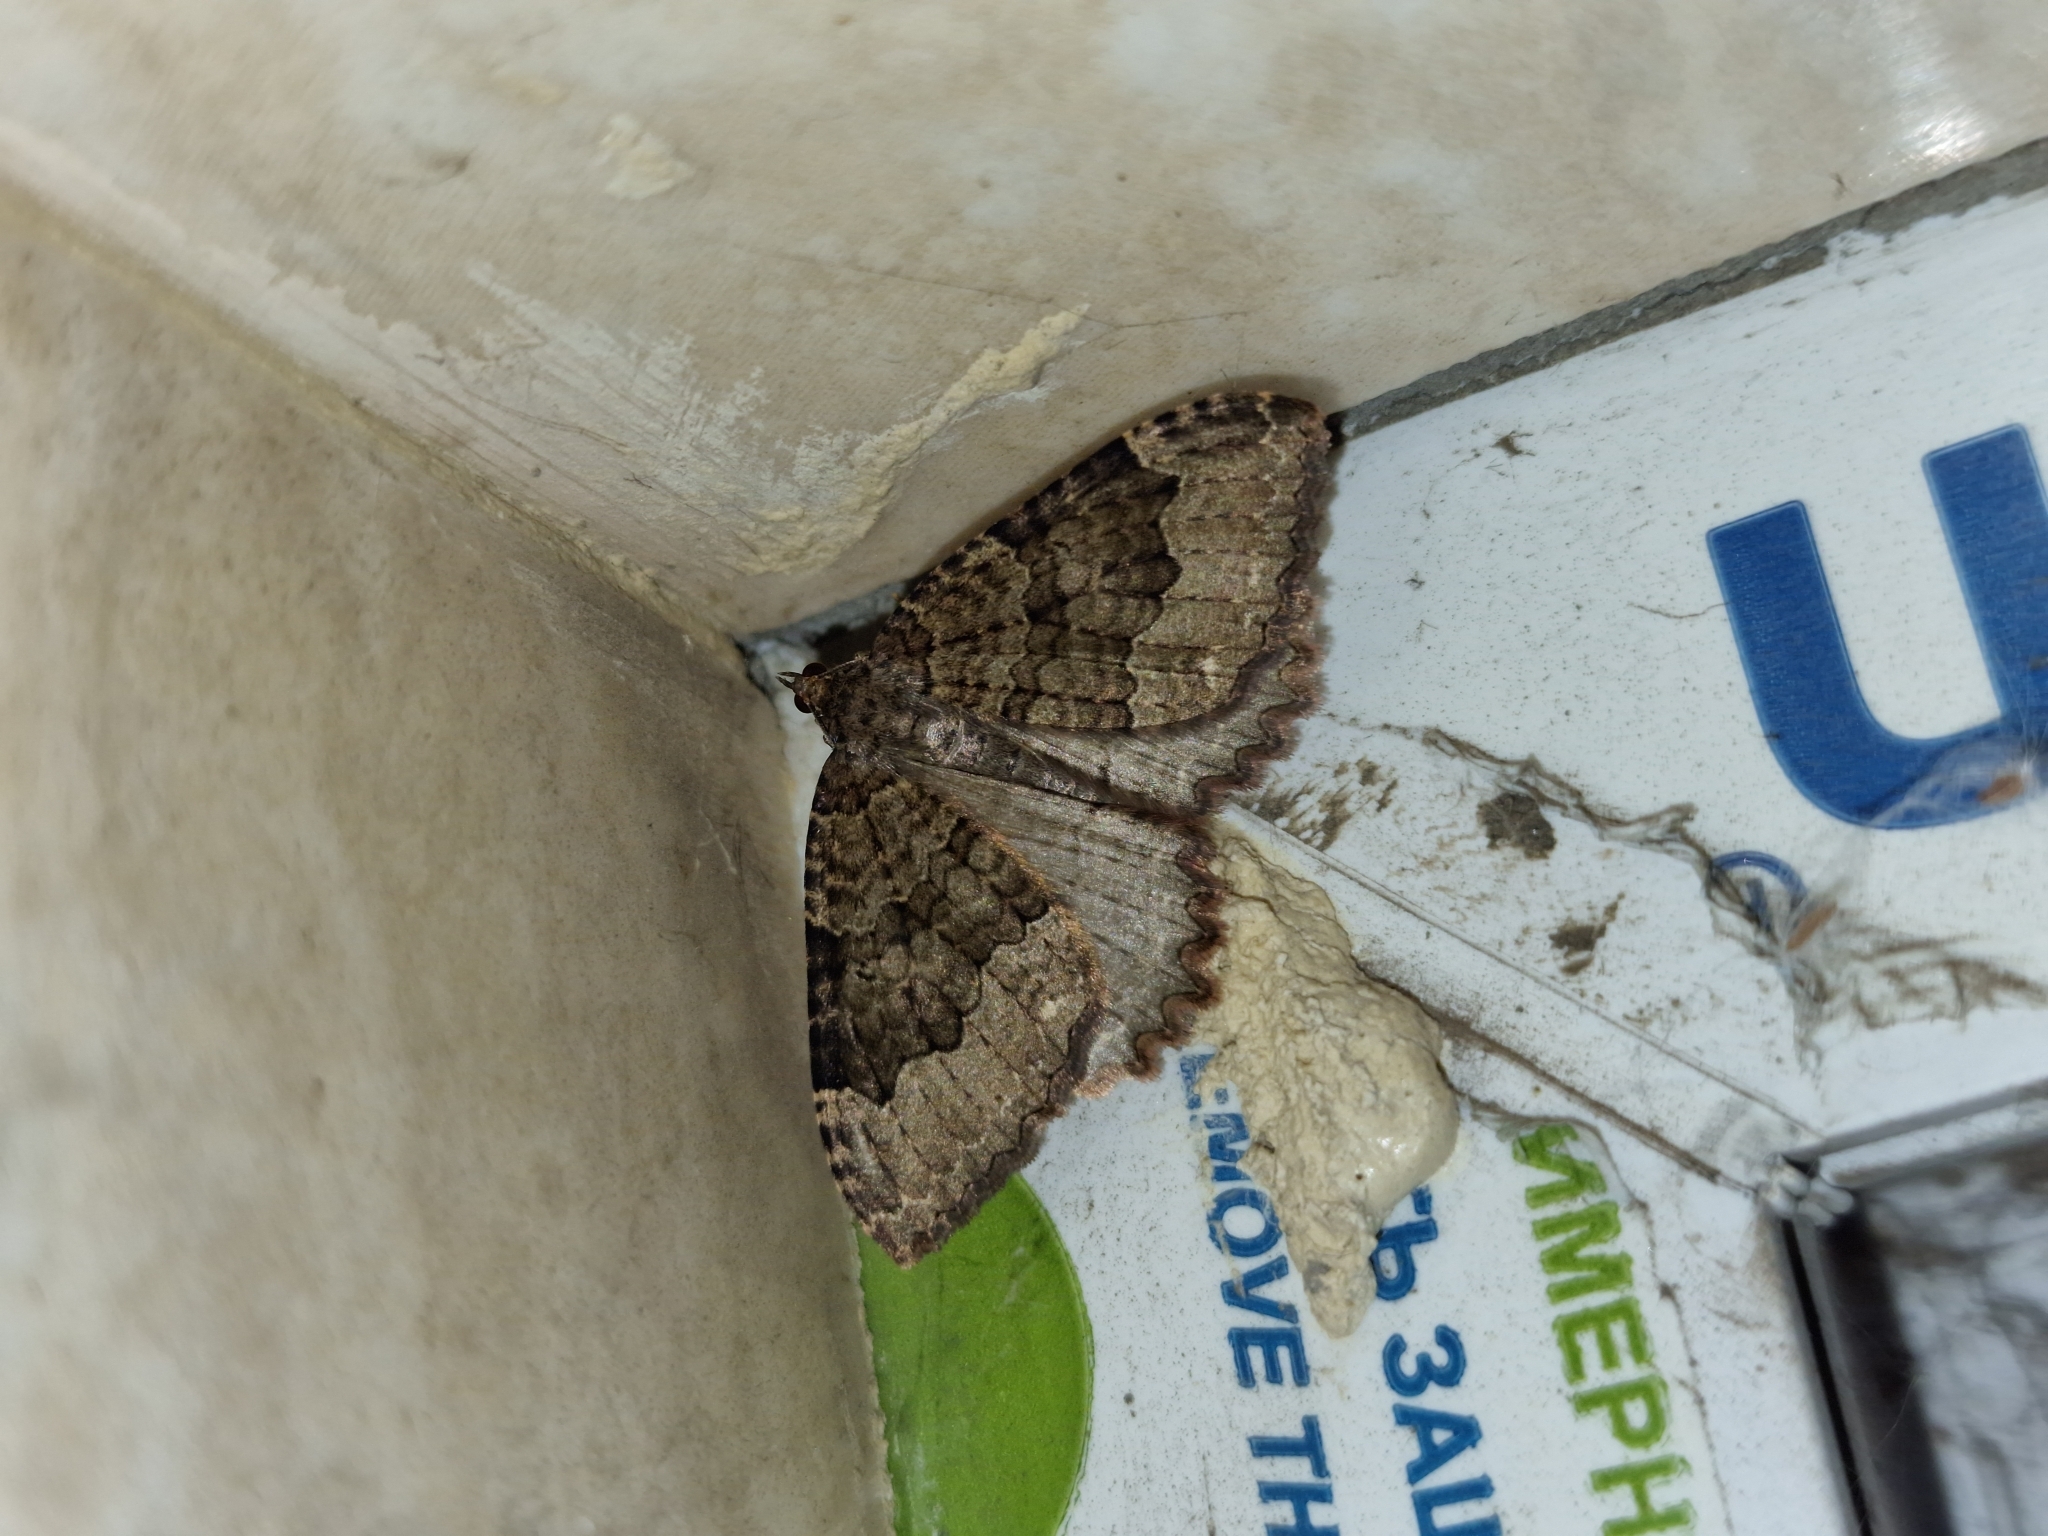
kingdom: Animalia
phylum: Arthropoda
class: Insecta
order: Lepidoptera
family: Geometridae
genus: Triphosa
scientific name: Triphosa dubitata
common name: Tissue
